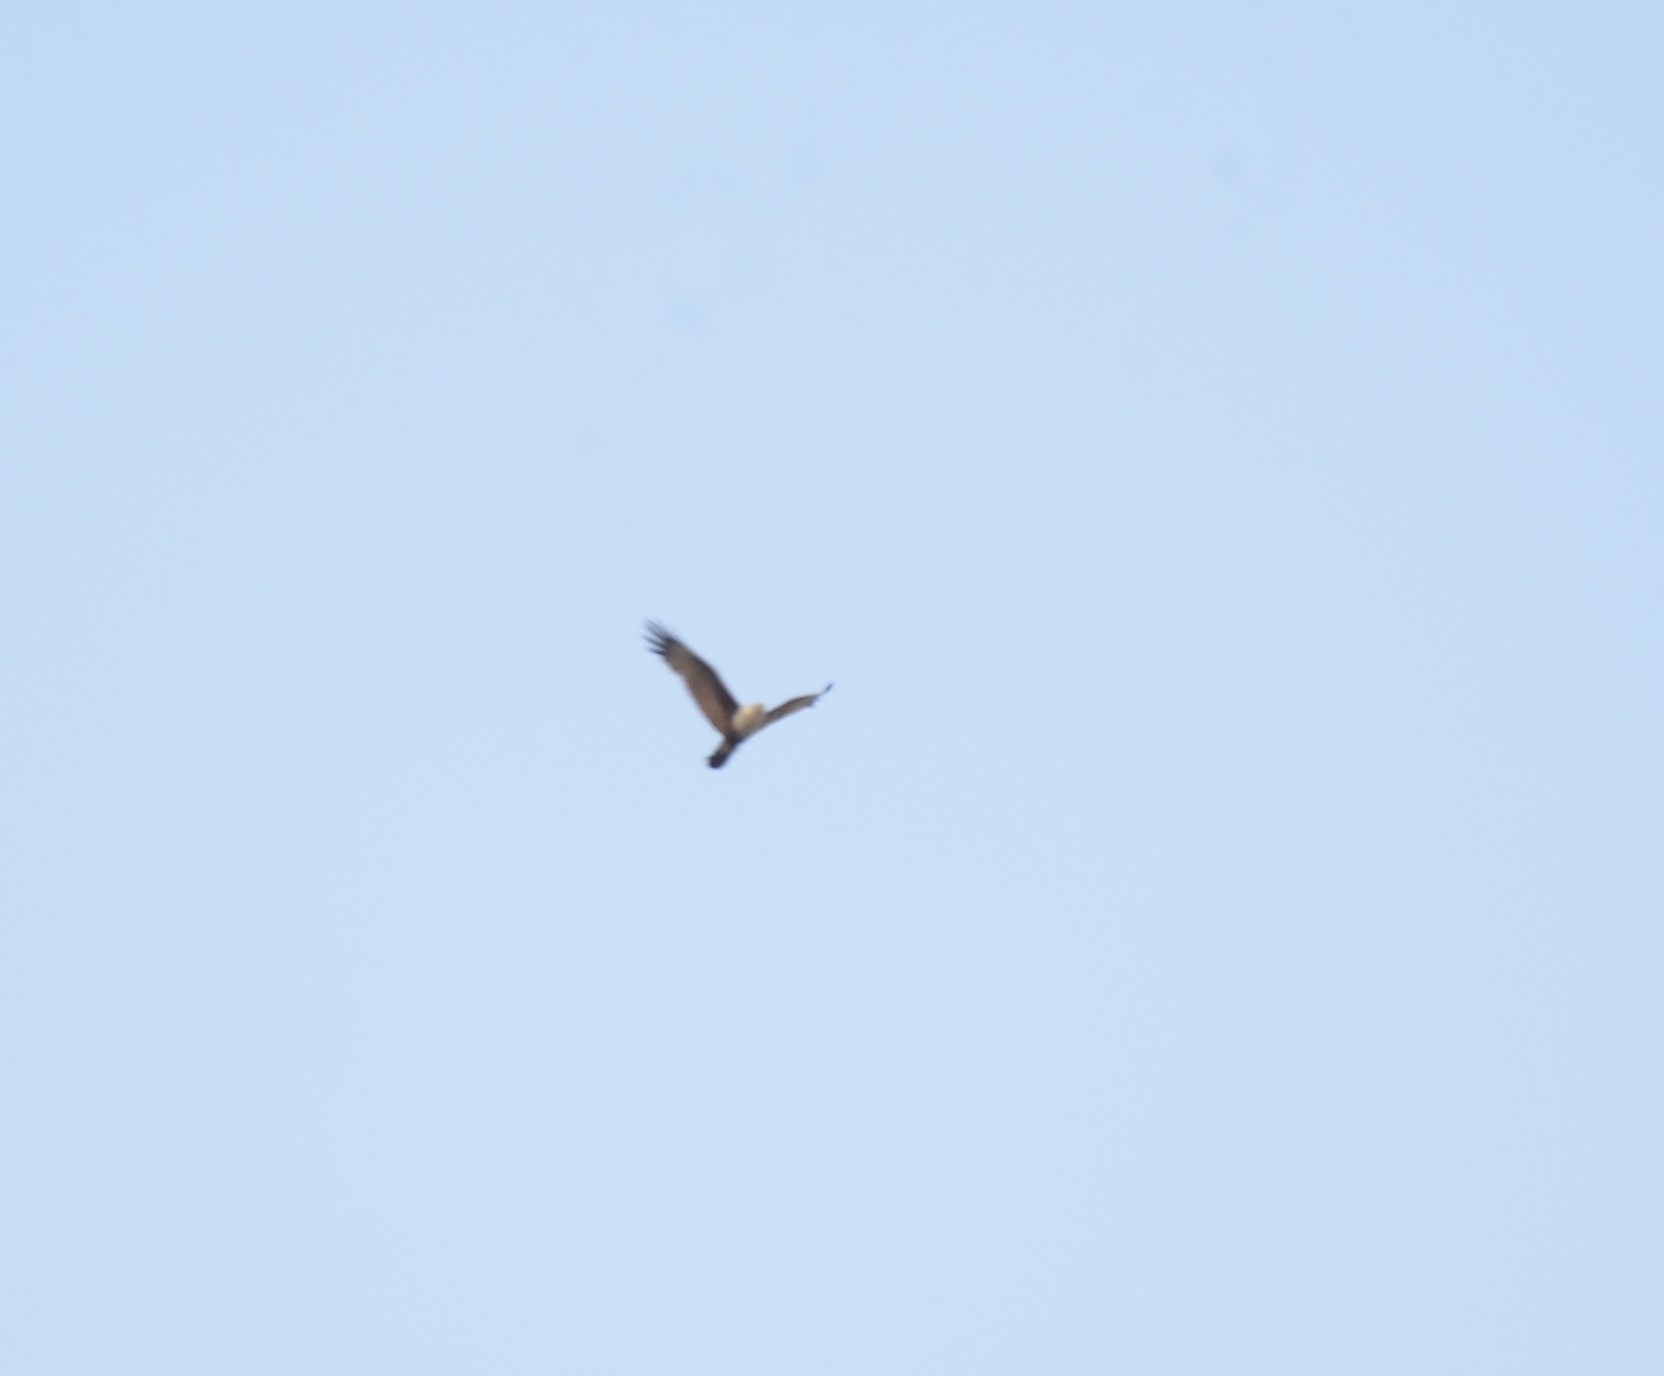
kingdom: Animalia
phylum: Chordata
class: Aves
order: Accipitriformes
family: Accipitridae
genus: Haliastur
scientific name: Haliastur indus
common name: Brahminy kite
